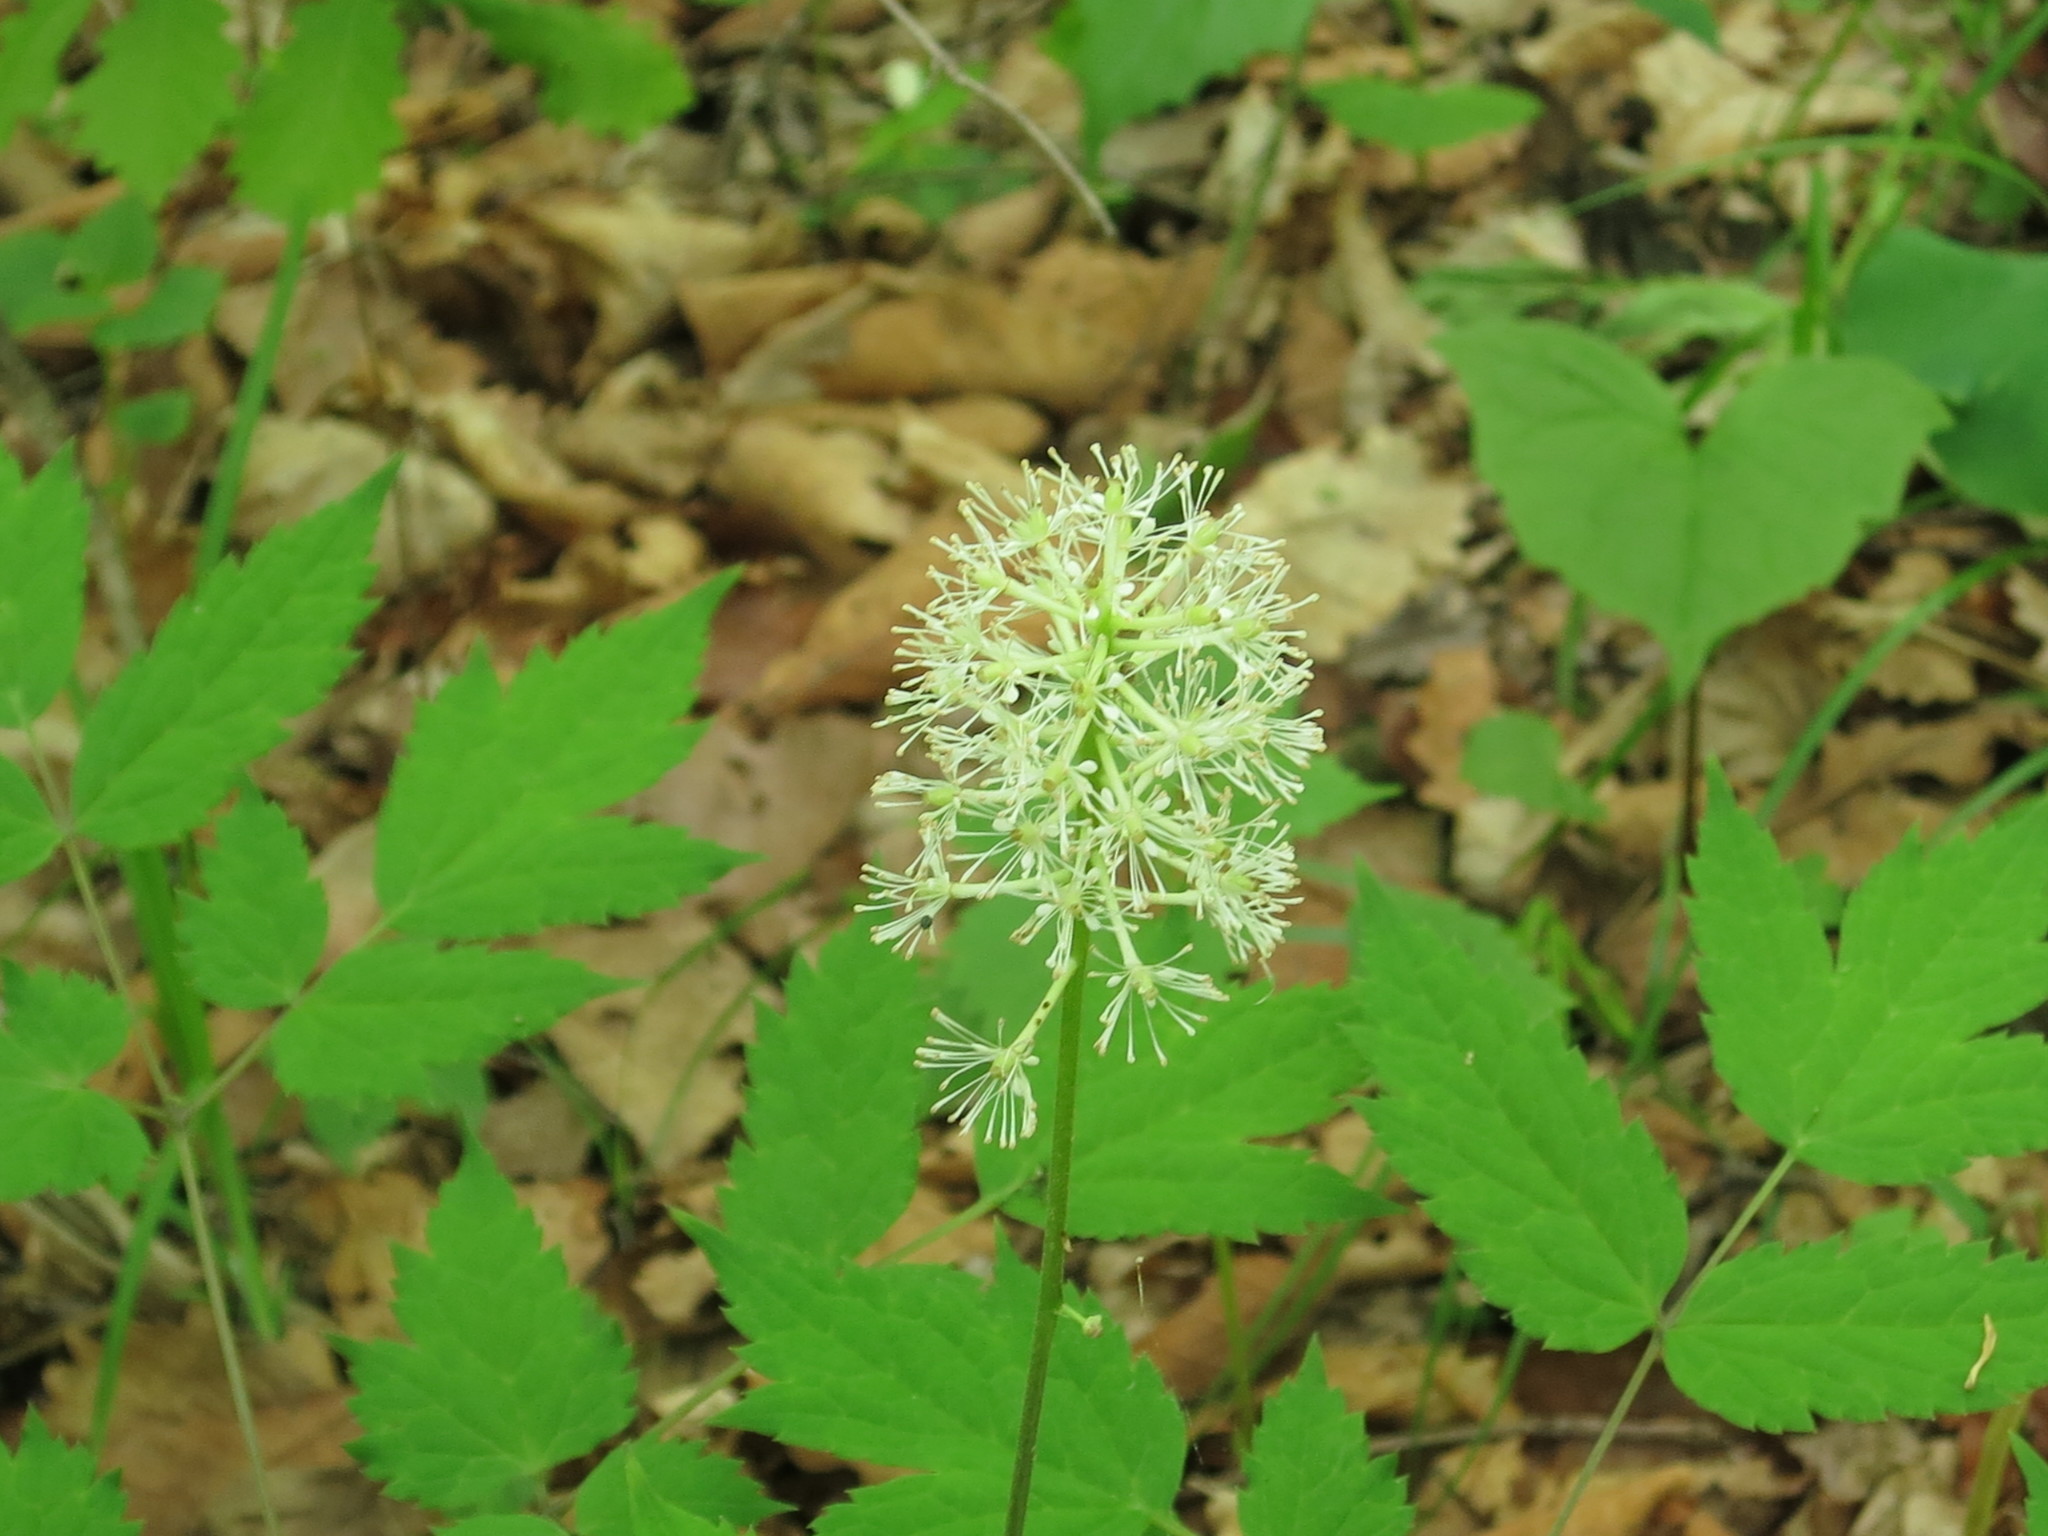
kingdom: Plantae
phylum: Tracheophyta
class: Magnoliopsida
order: Ranunculales
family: Ranunculaceae
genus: Actaea
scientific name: Actaea asiatica
